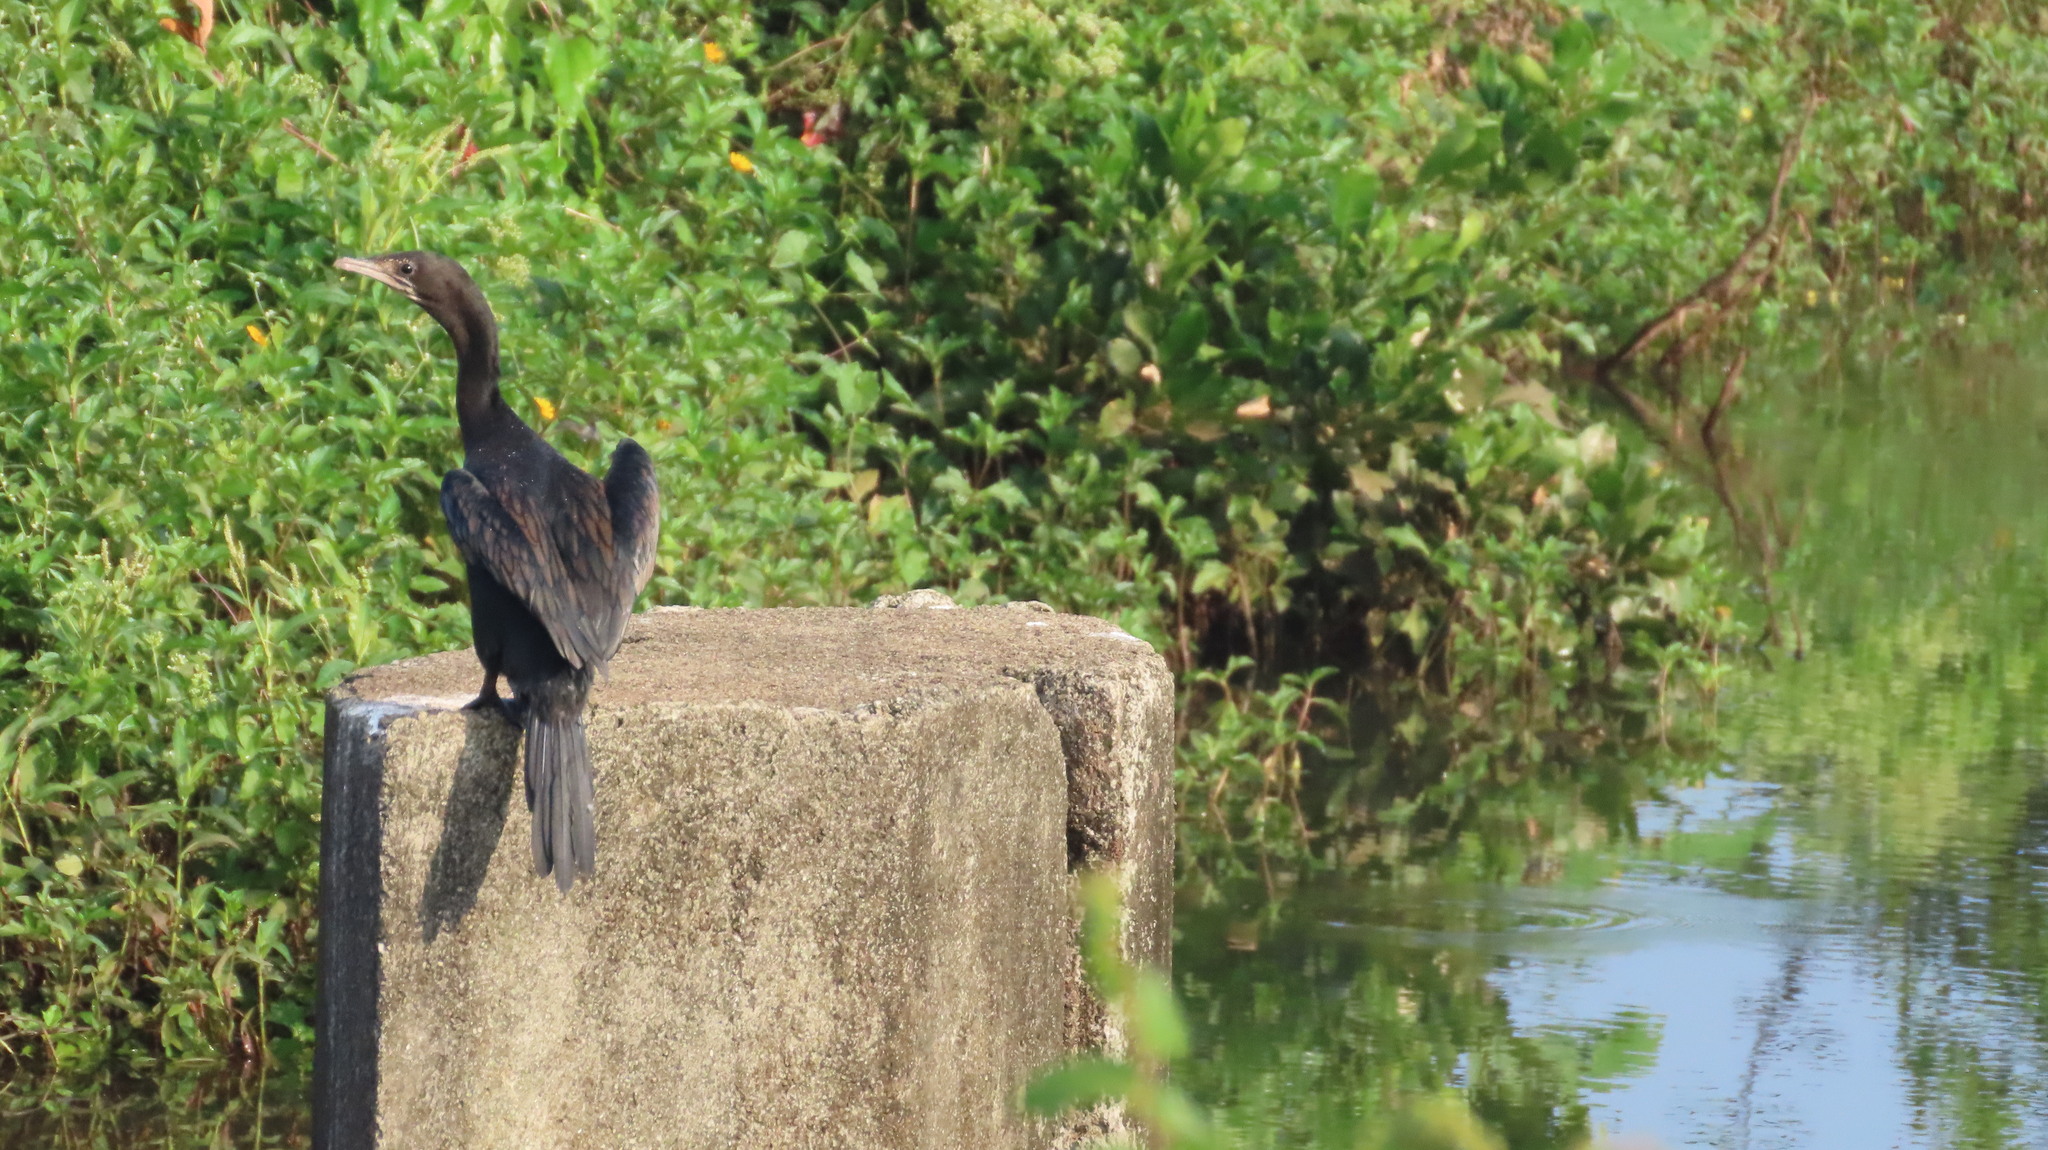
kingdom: Animalia
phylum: Chordata
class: Aves
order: Suliformes
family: Phalacrocoracidae
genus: Microcarbo
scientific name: Microcarbo niger
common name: Little cormorant
